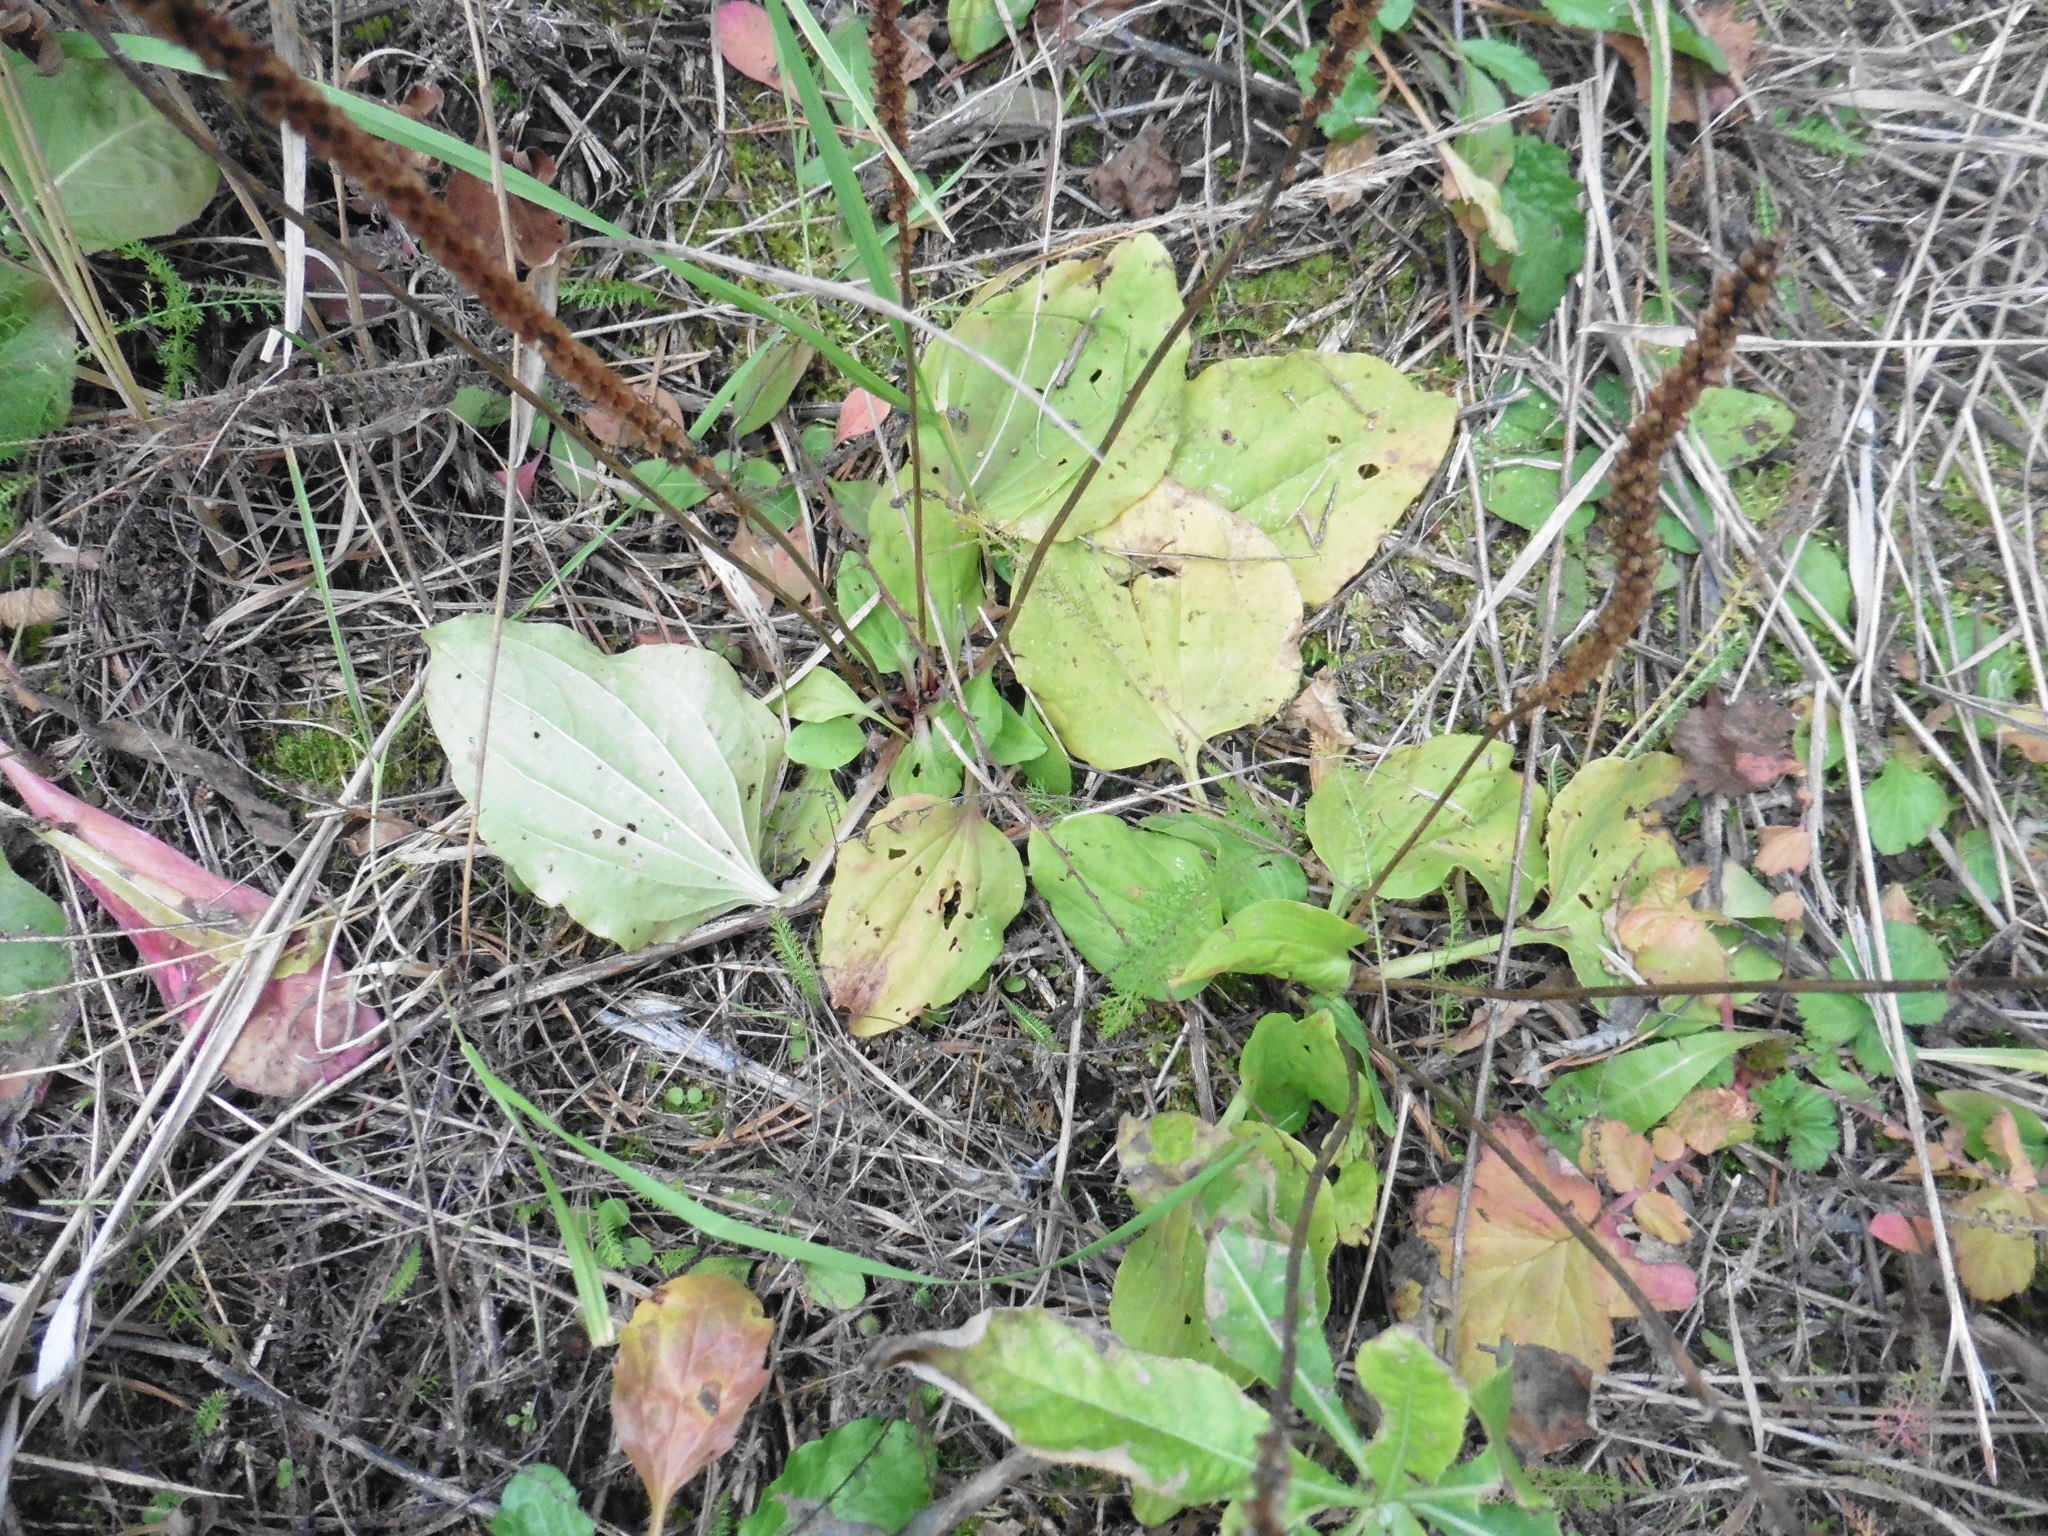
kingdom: Plantae
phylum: Tracheophyta
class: Magnoliopsida
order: Lamiales
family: Plantaginaceae
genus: Plantago
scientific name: Plantago major
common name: Common plantain
